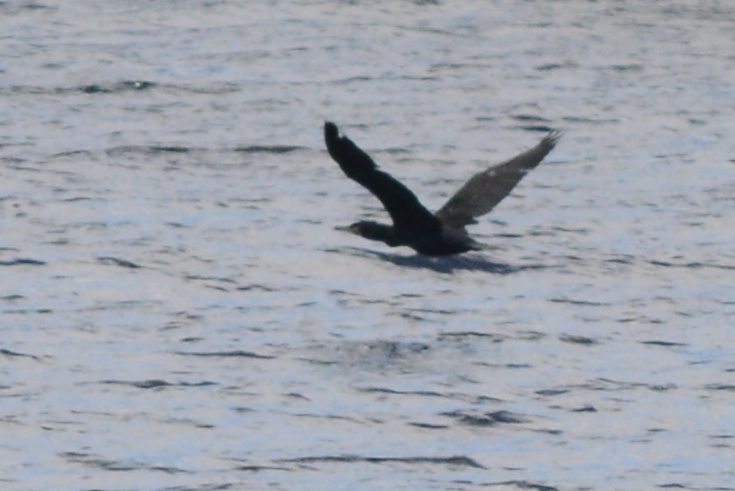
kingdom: Animalia
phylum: Chordata
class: Aves
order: Suliformes
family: Phalacrocoracidae
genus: Phalacrocorax
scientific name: Phalacrocorax carbo
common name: Great cormorant
